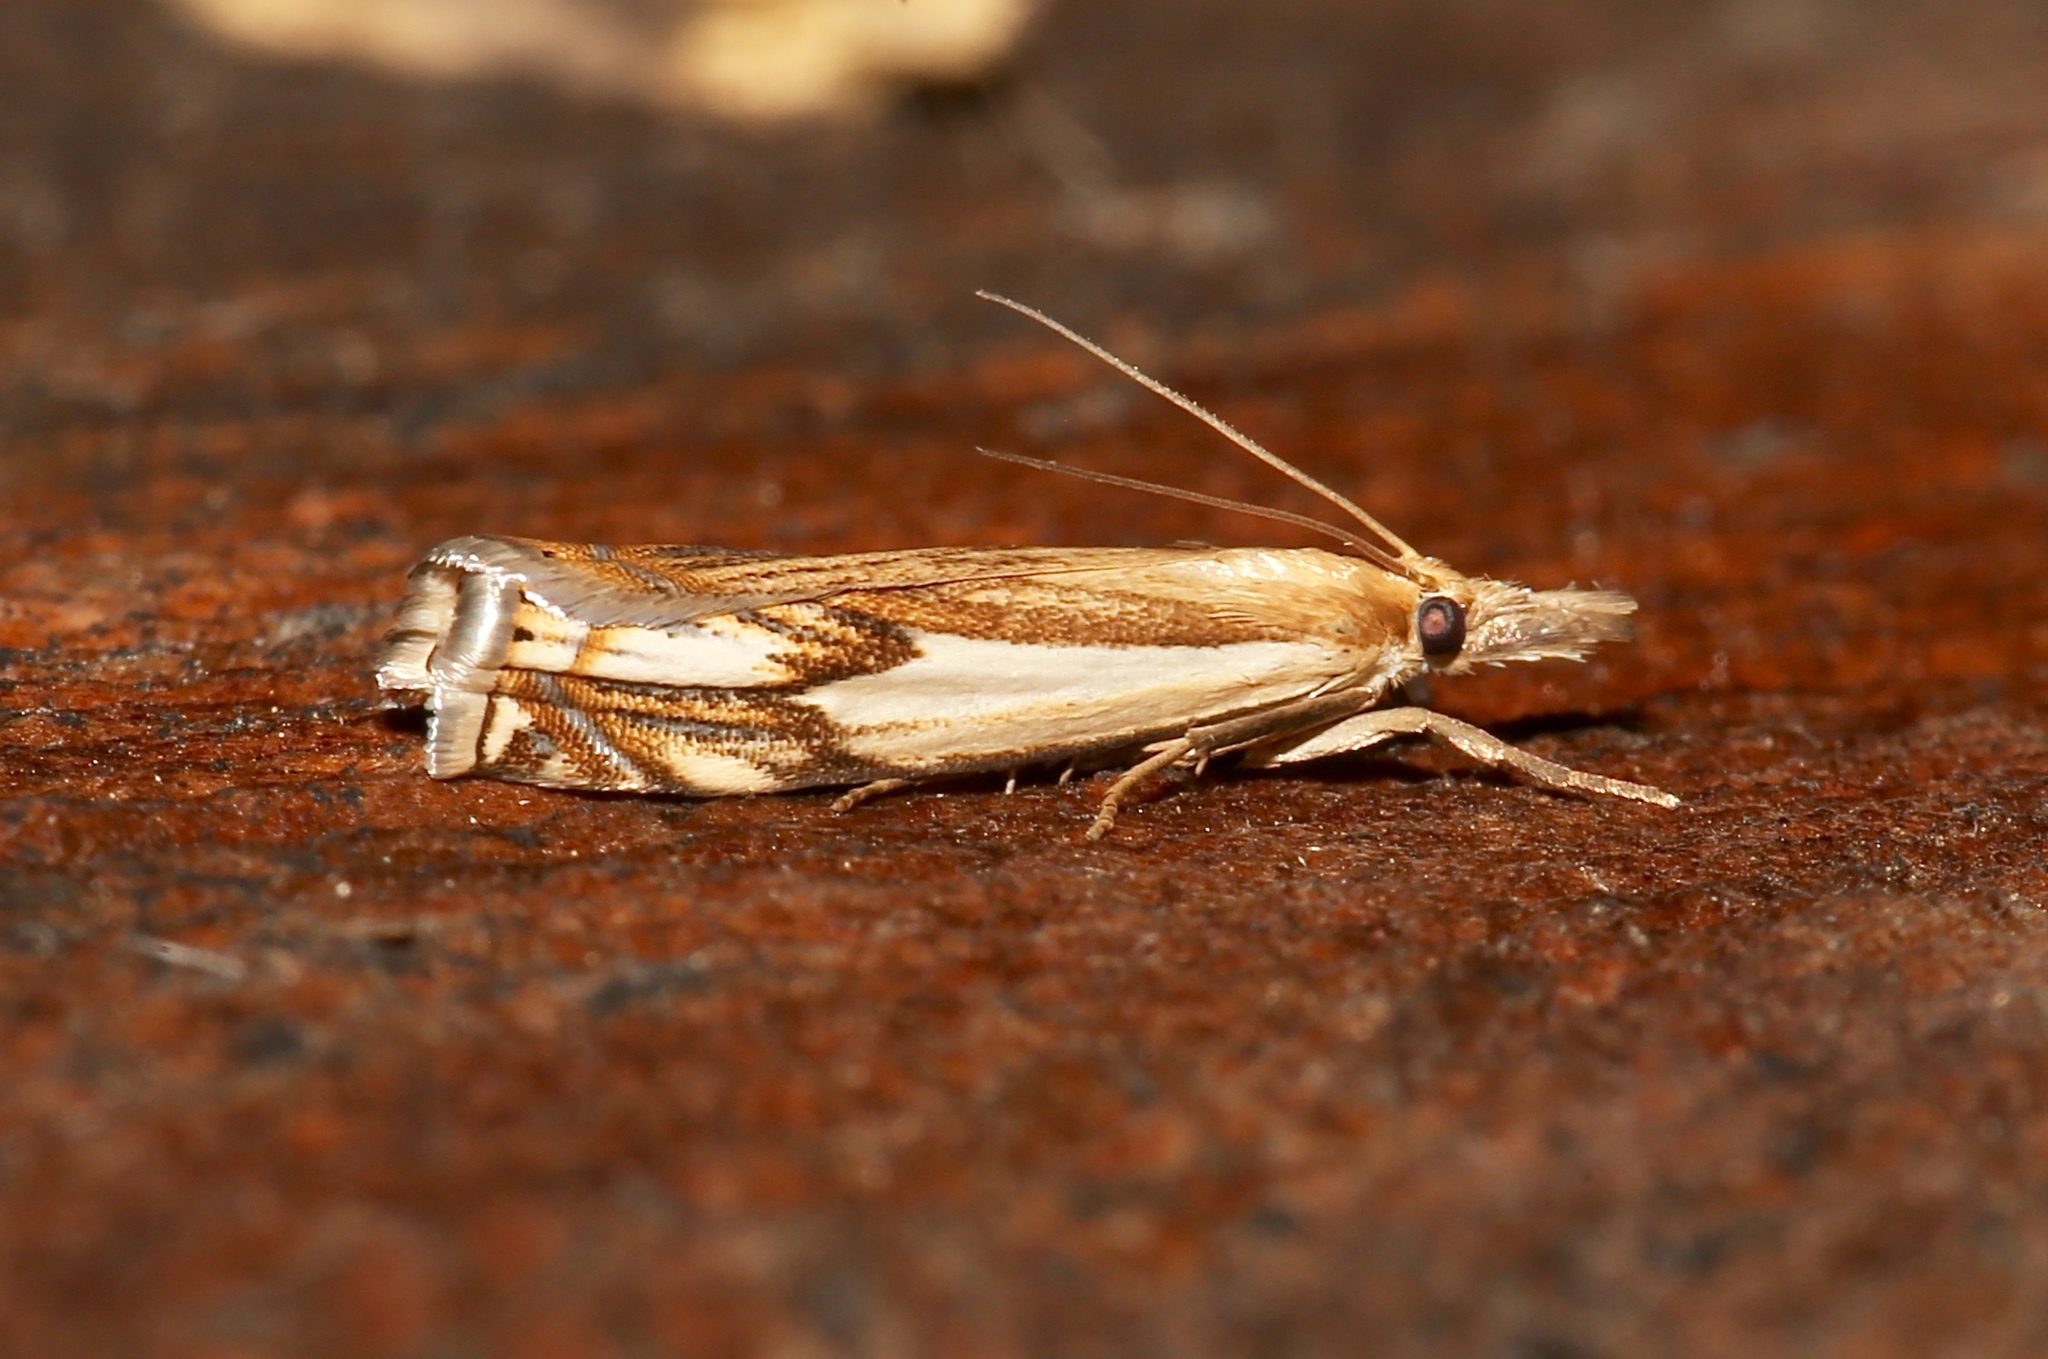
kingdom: Animalia
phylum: Arthropoda
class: Insecta
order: Lepidoptera
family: Crambidae
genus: Crambus
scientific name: Crambus agitatellus
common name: Double-banded grass-veneer
